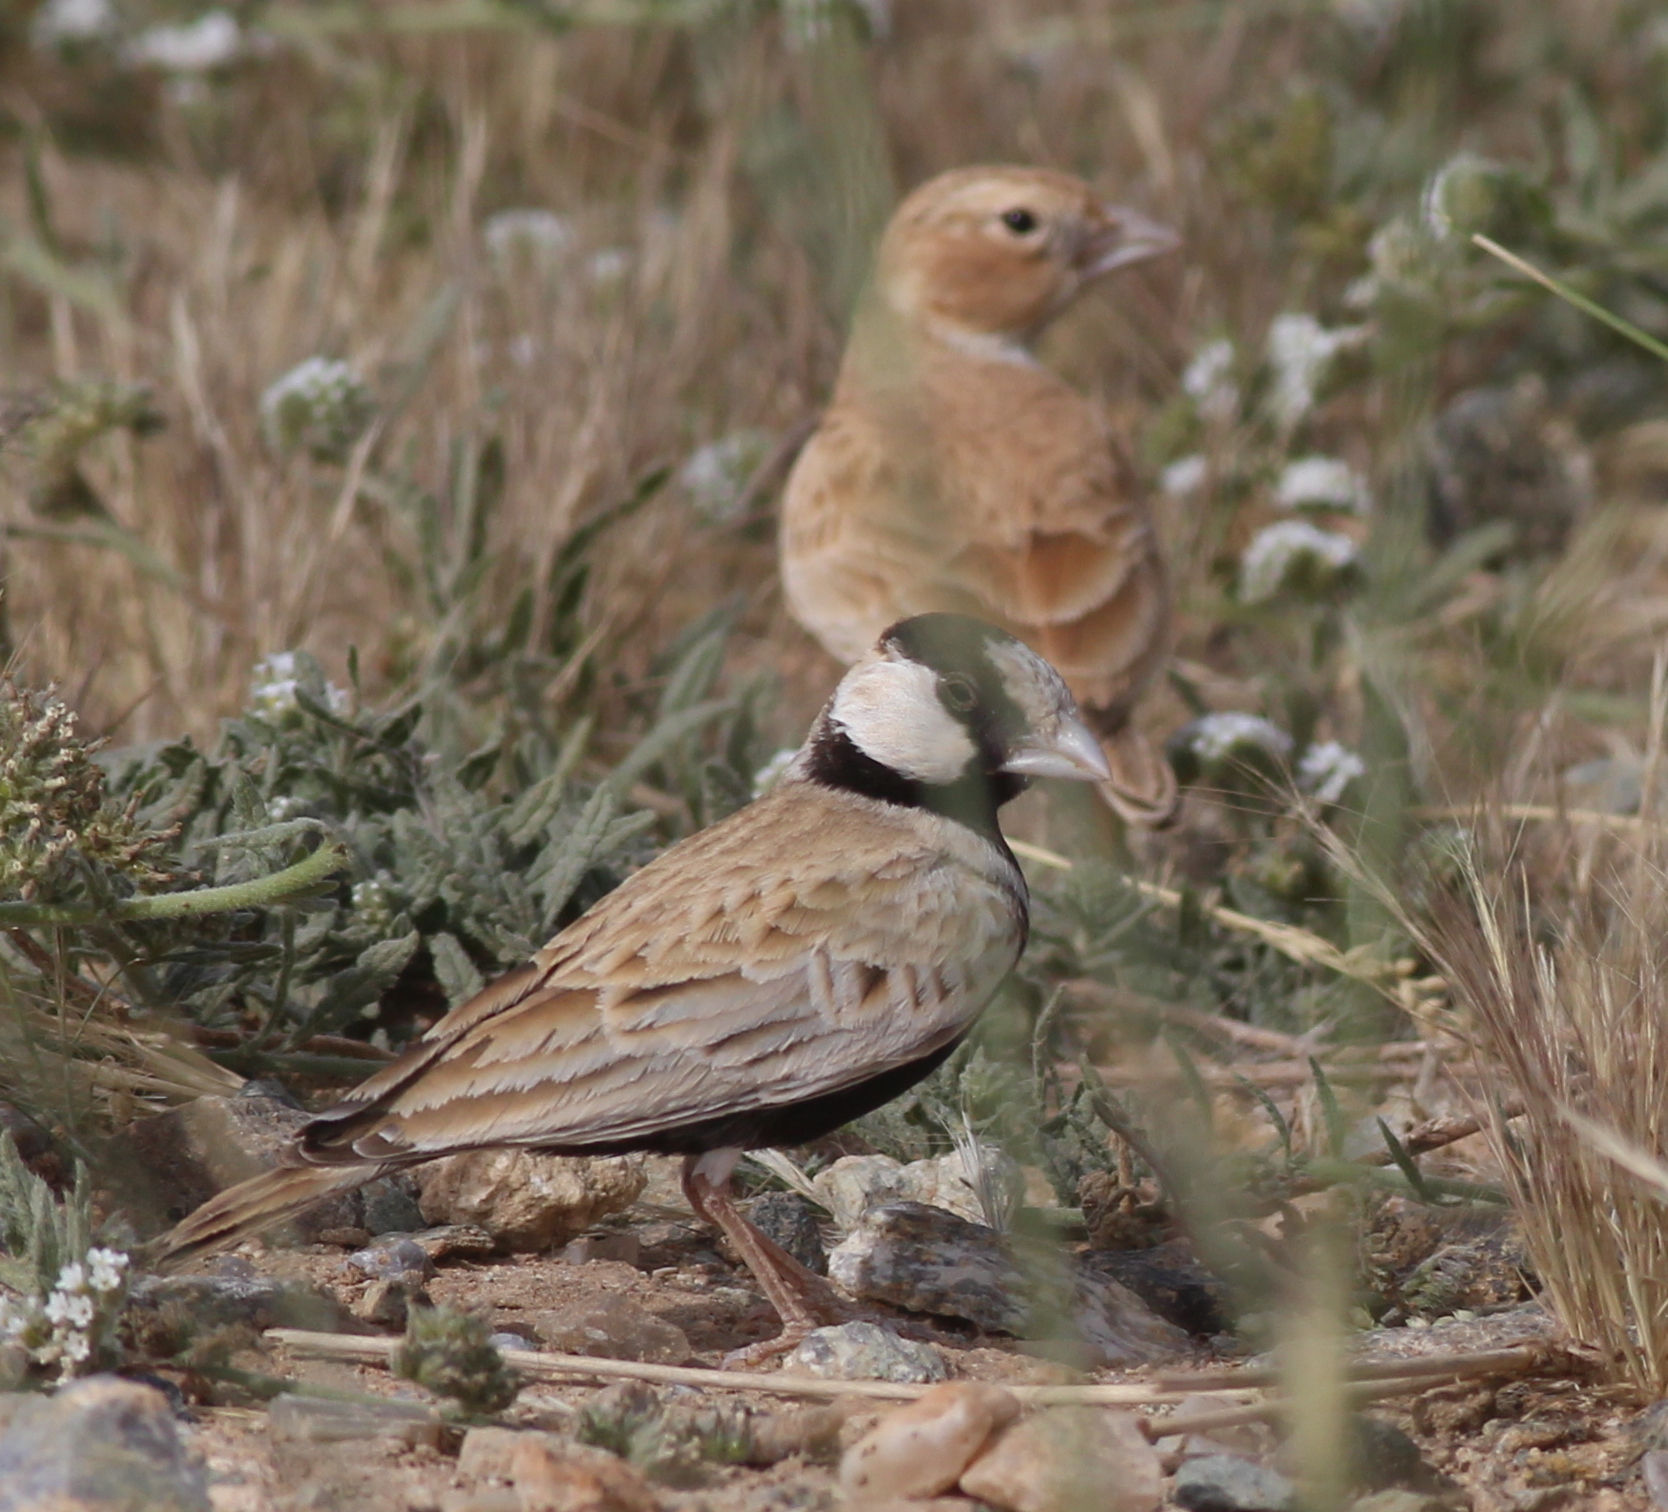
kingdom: Animalia
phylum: Chordata
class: Aves
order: Passeriformes
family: Alaudidae
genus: Eremopterix
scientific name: Eremopterix nigriceps
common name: Black-crowned sparrow-lark
